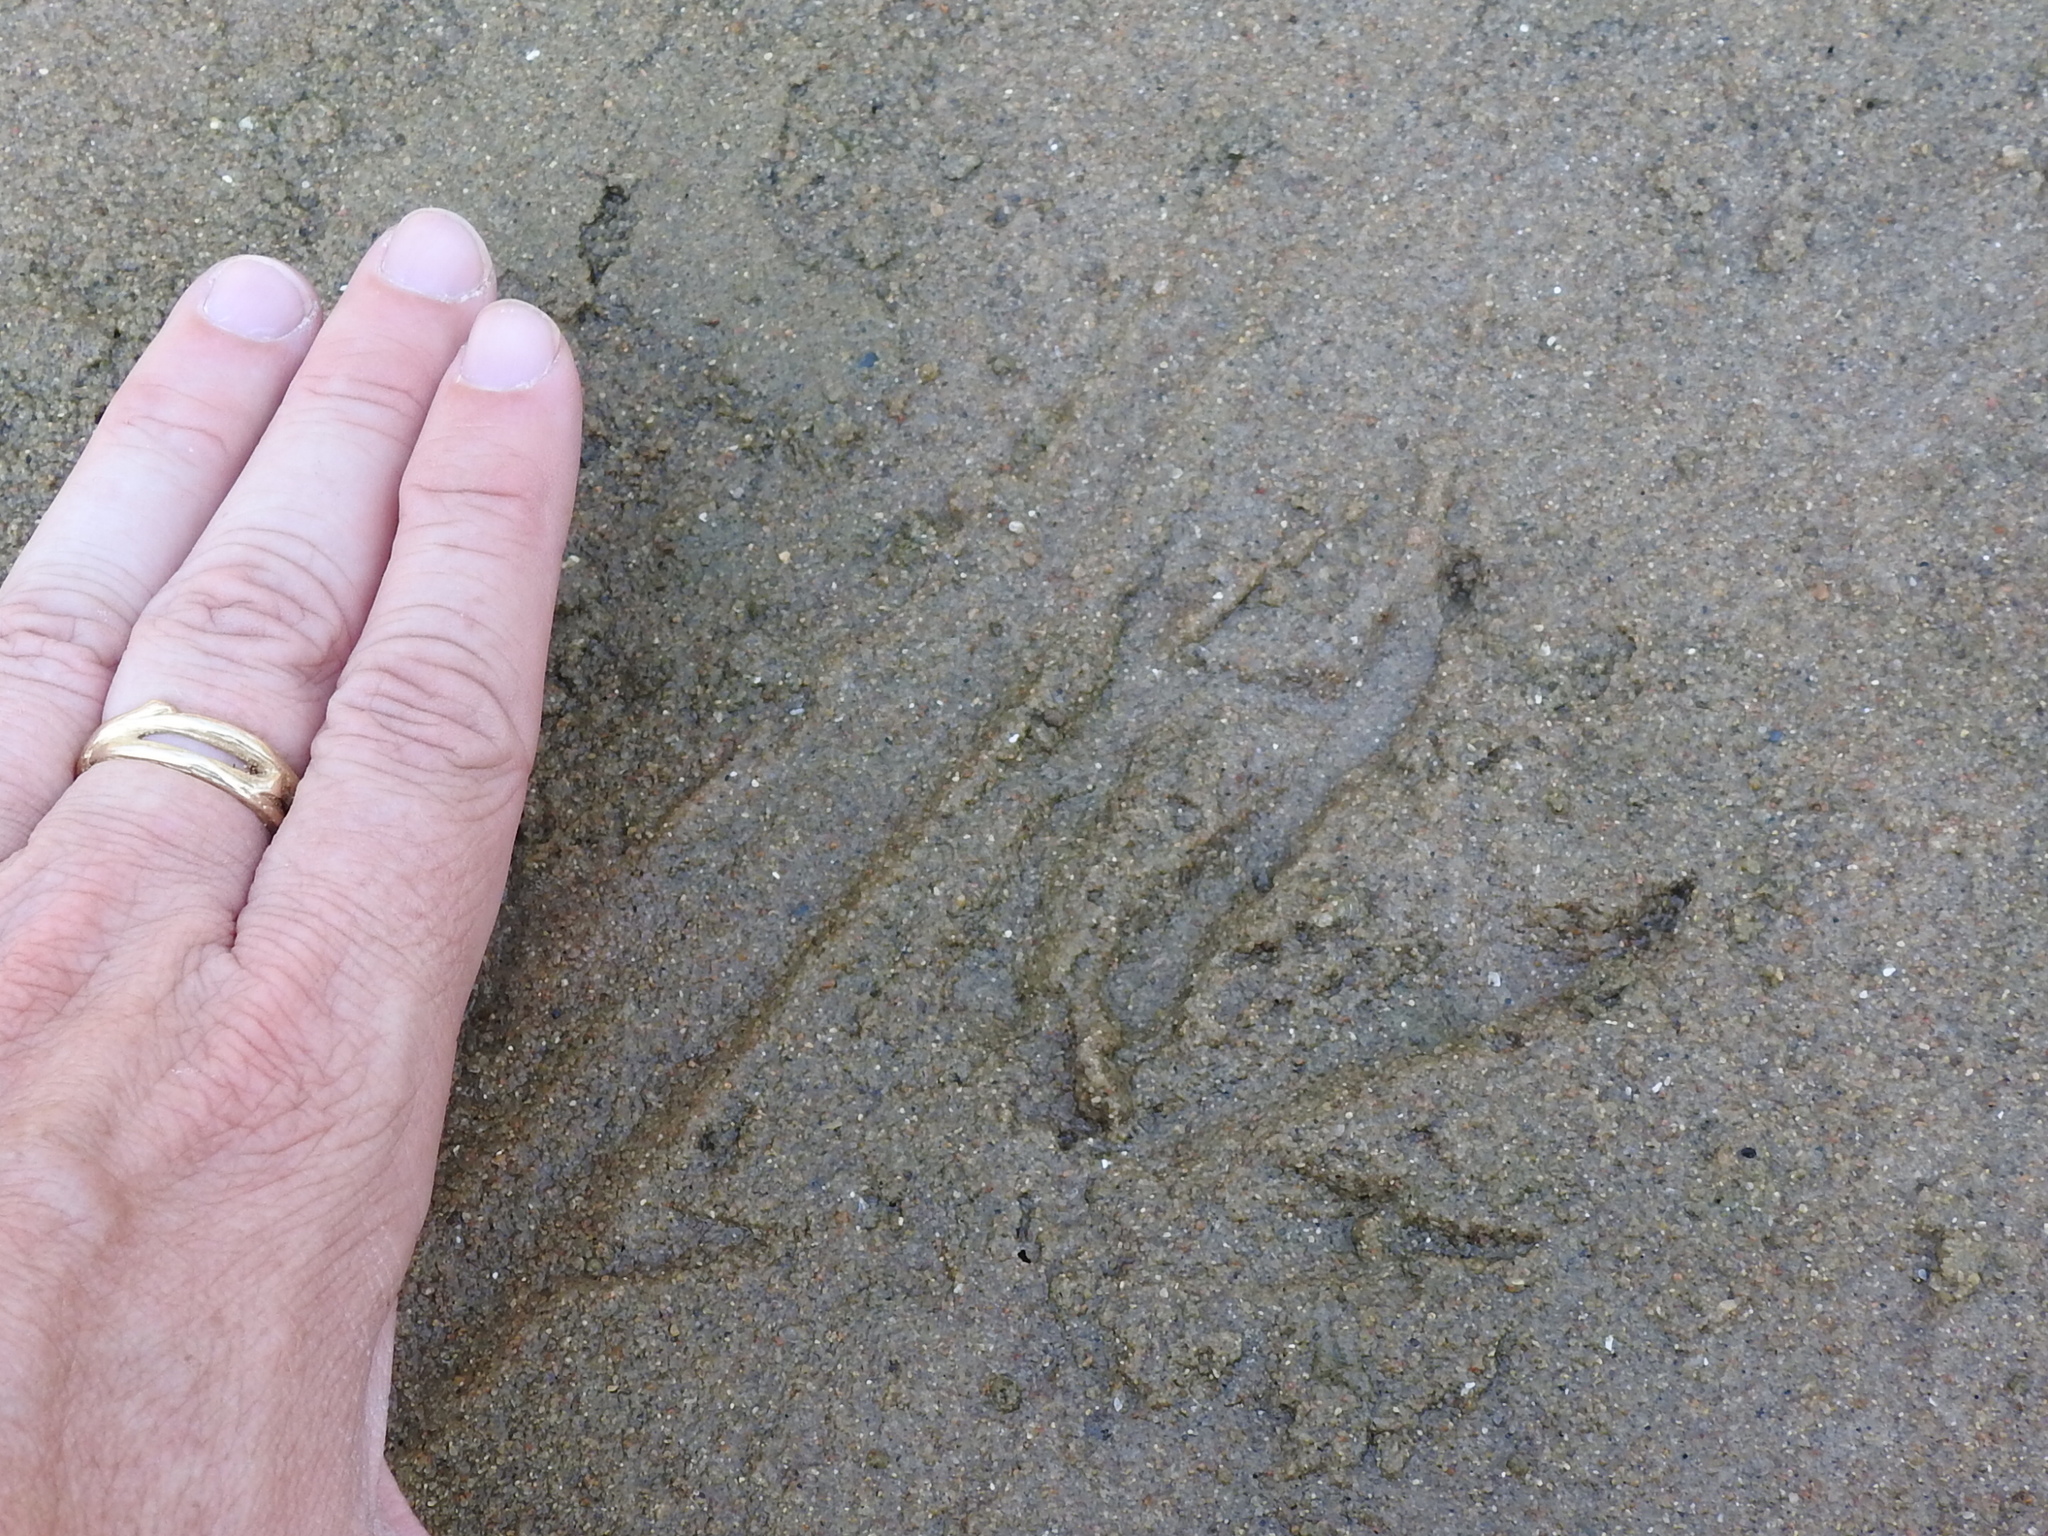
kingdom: Animalia
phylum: Chordata
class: Mammalia
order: Rodentia
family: Myocastoridae
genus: Myocastor
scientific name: Myocastor coypus
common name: Coypu
